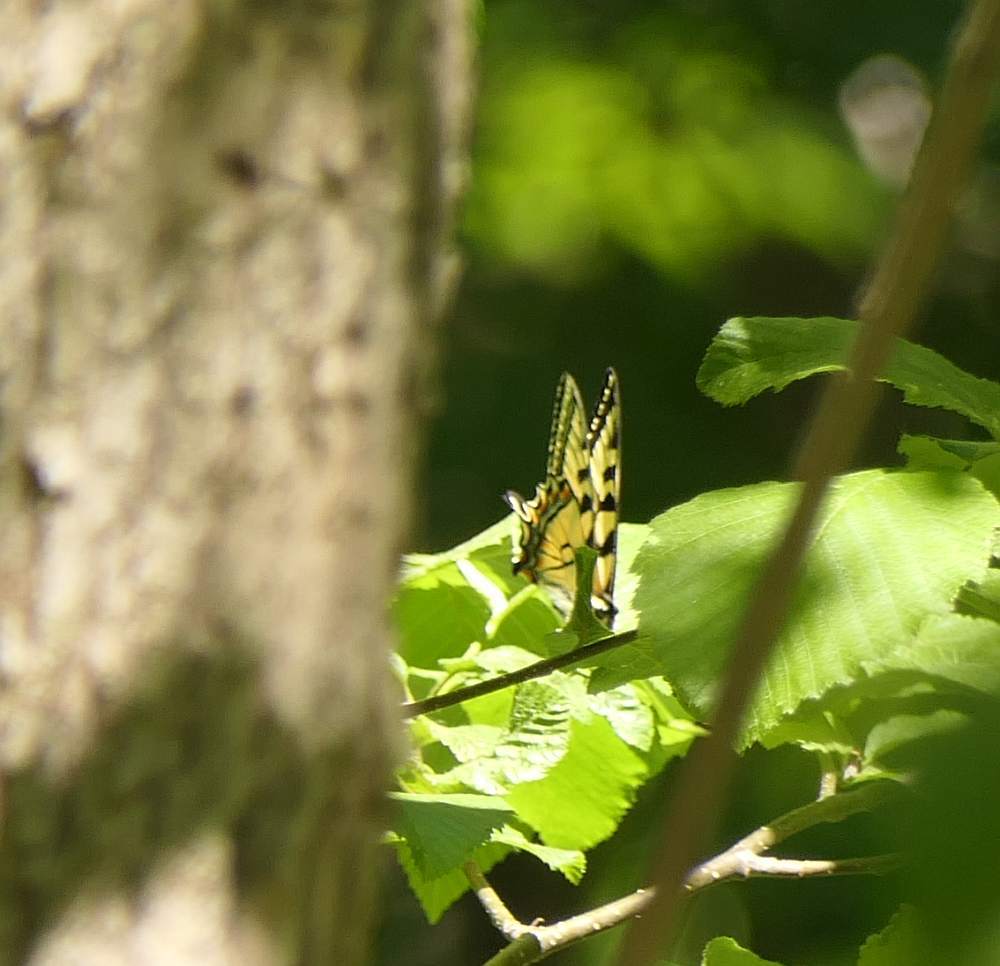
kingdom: Animalia
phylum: Arthropoda
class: Insecta
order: Lepidoptera
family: Papilionidae
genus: Papilio
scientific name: Papilio canadensis
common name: Canadian tiger swallowtail
